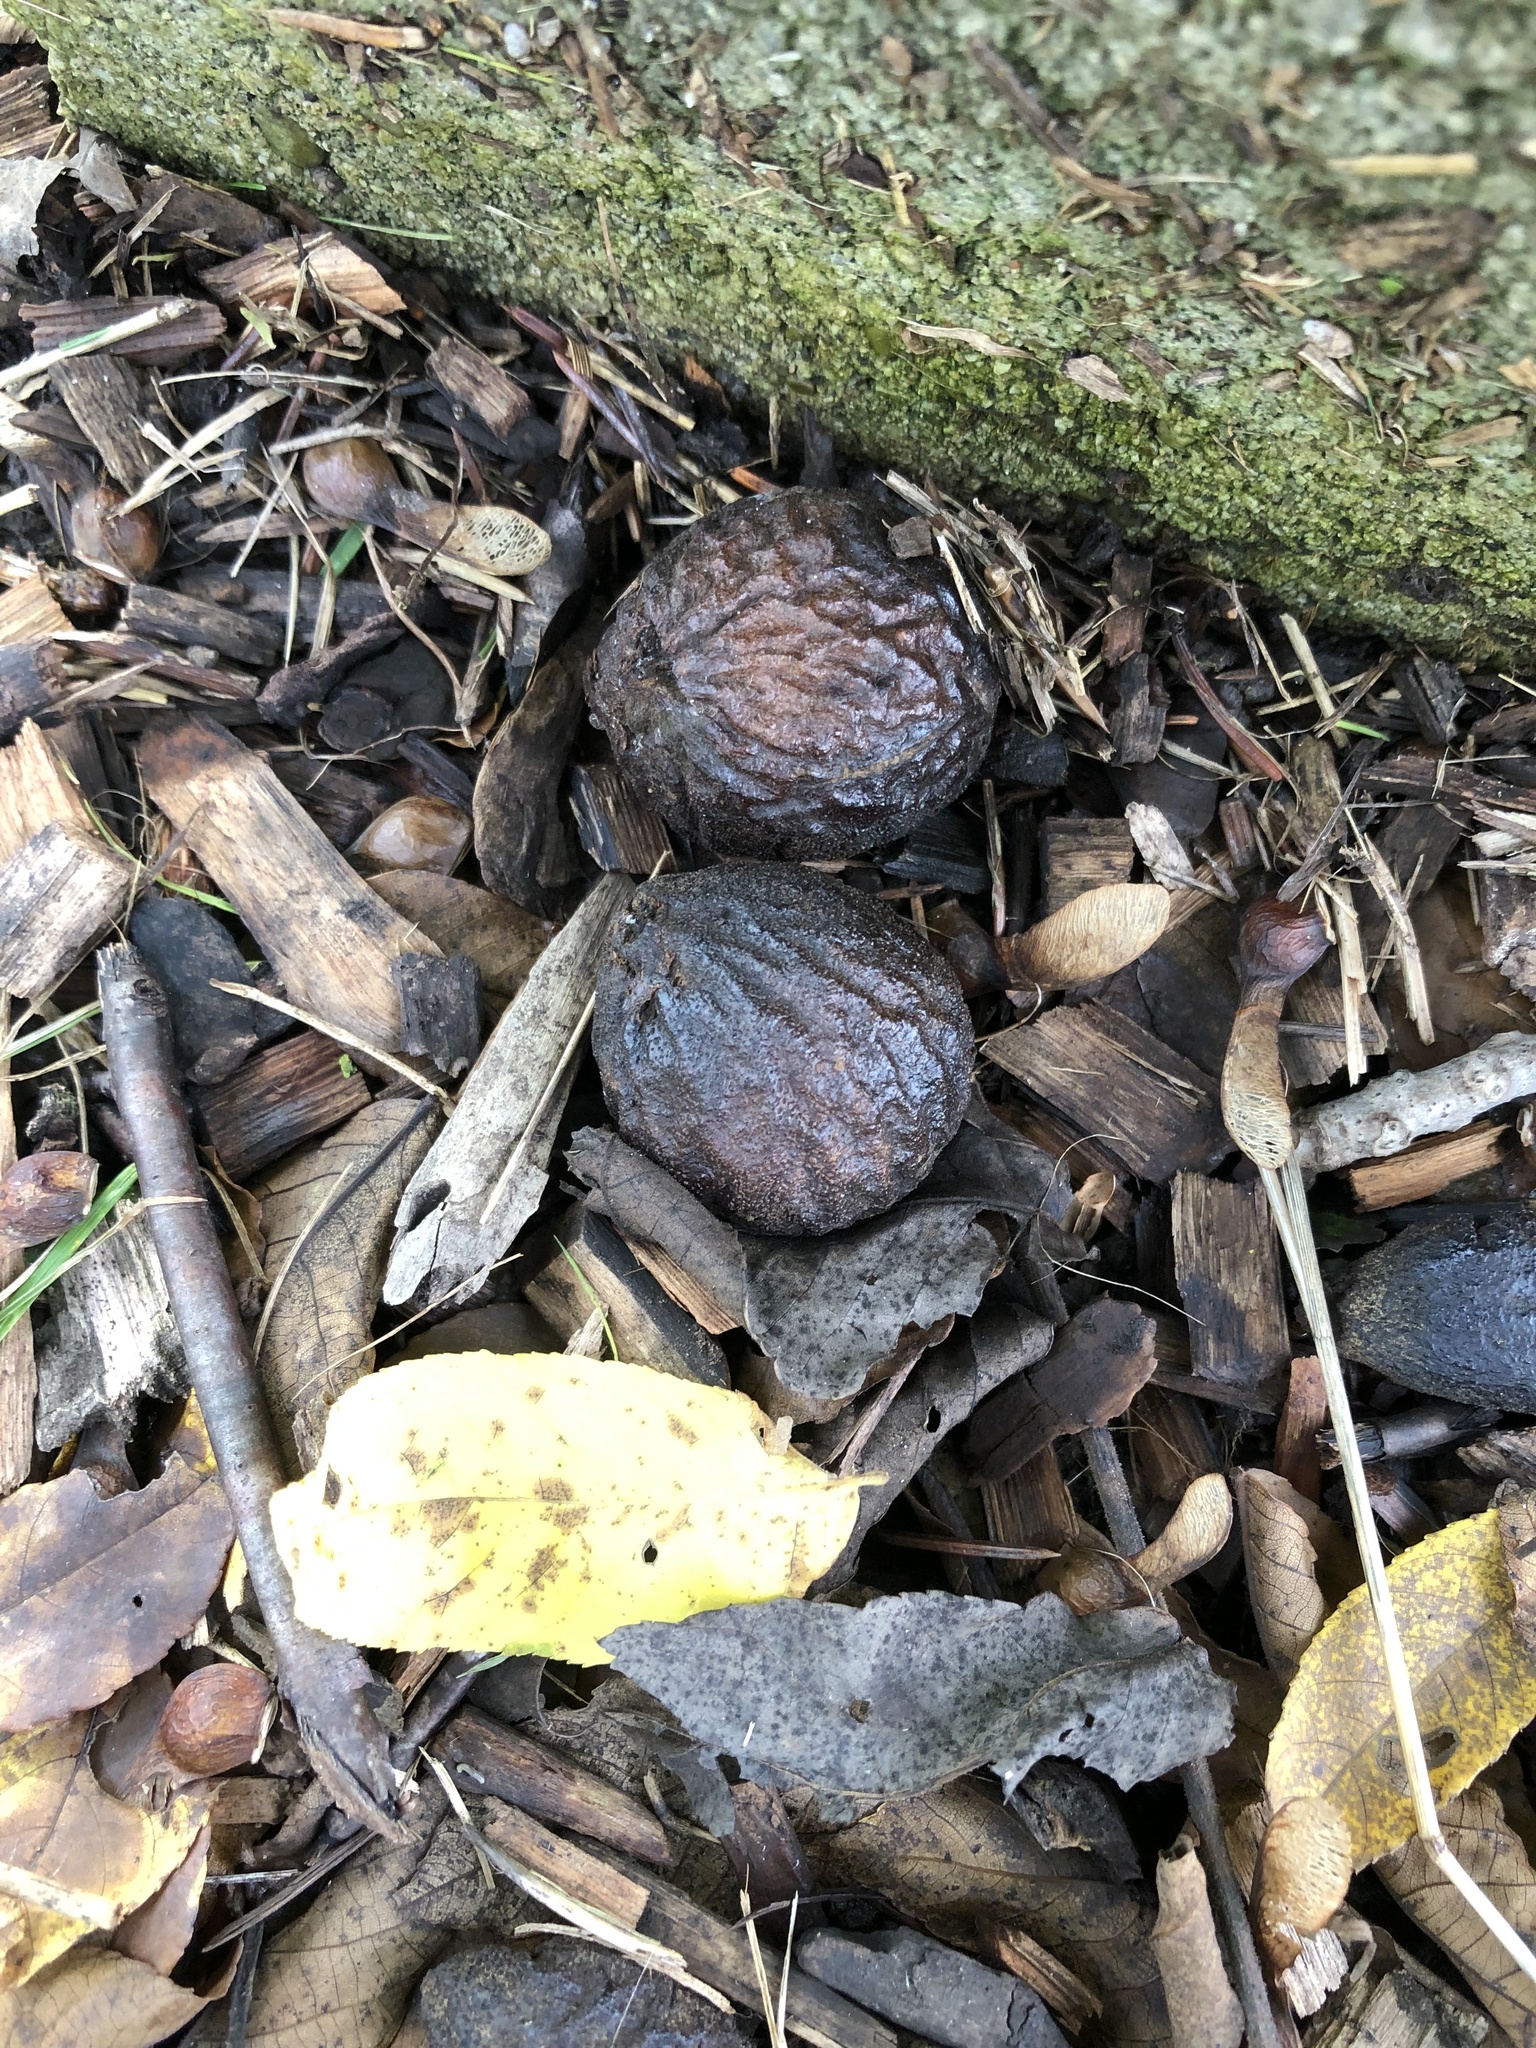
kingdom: Plantae
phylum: Tracheophyta
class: Magnoliopsida
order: Fagales
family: Juglandaceae
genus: Juglans
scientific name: Juglans nigra
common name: Black walnut
